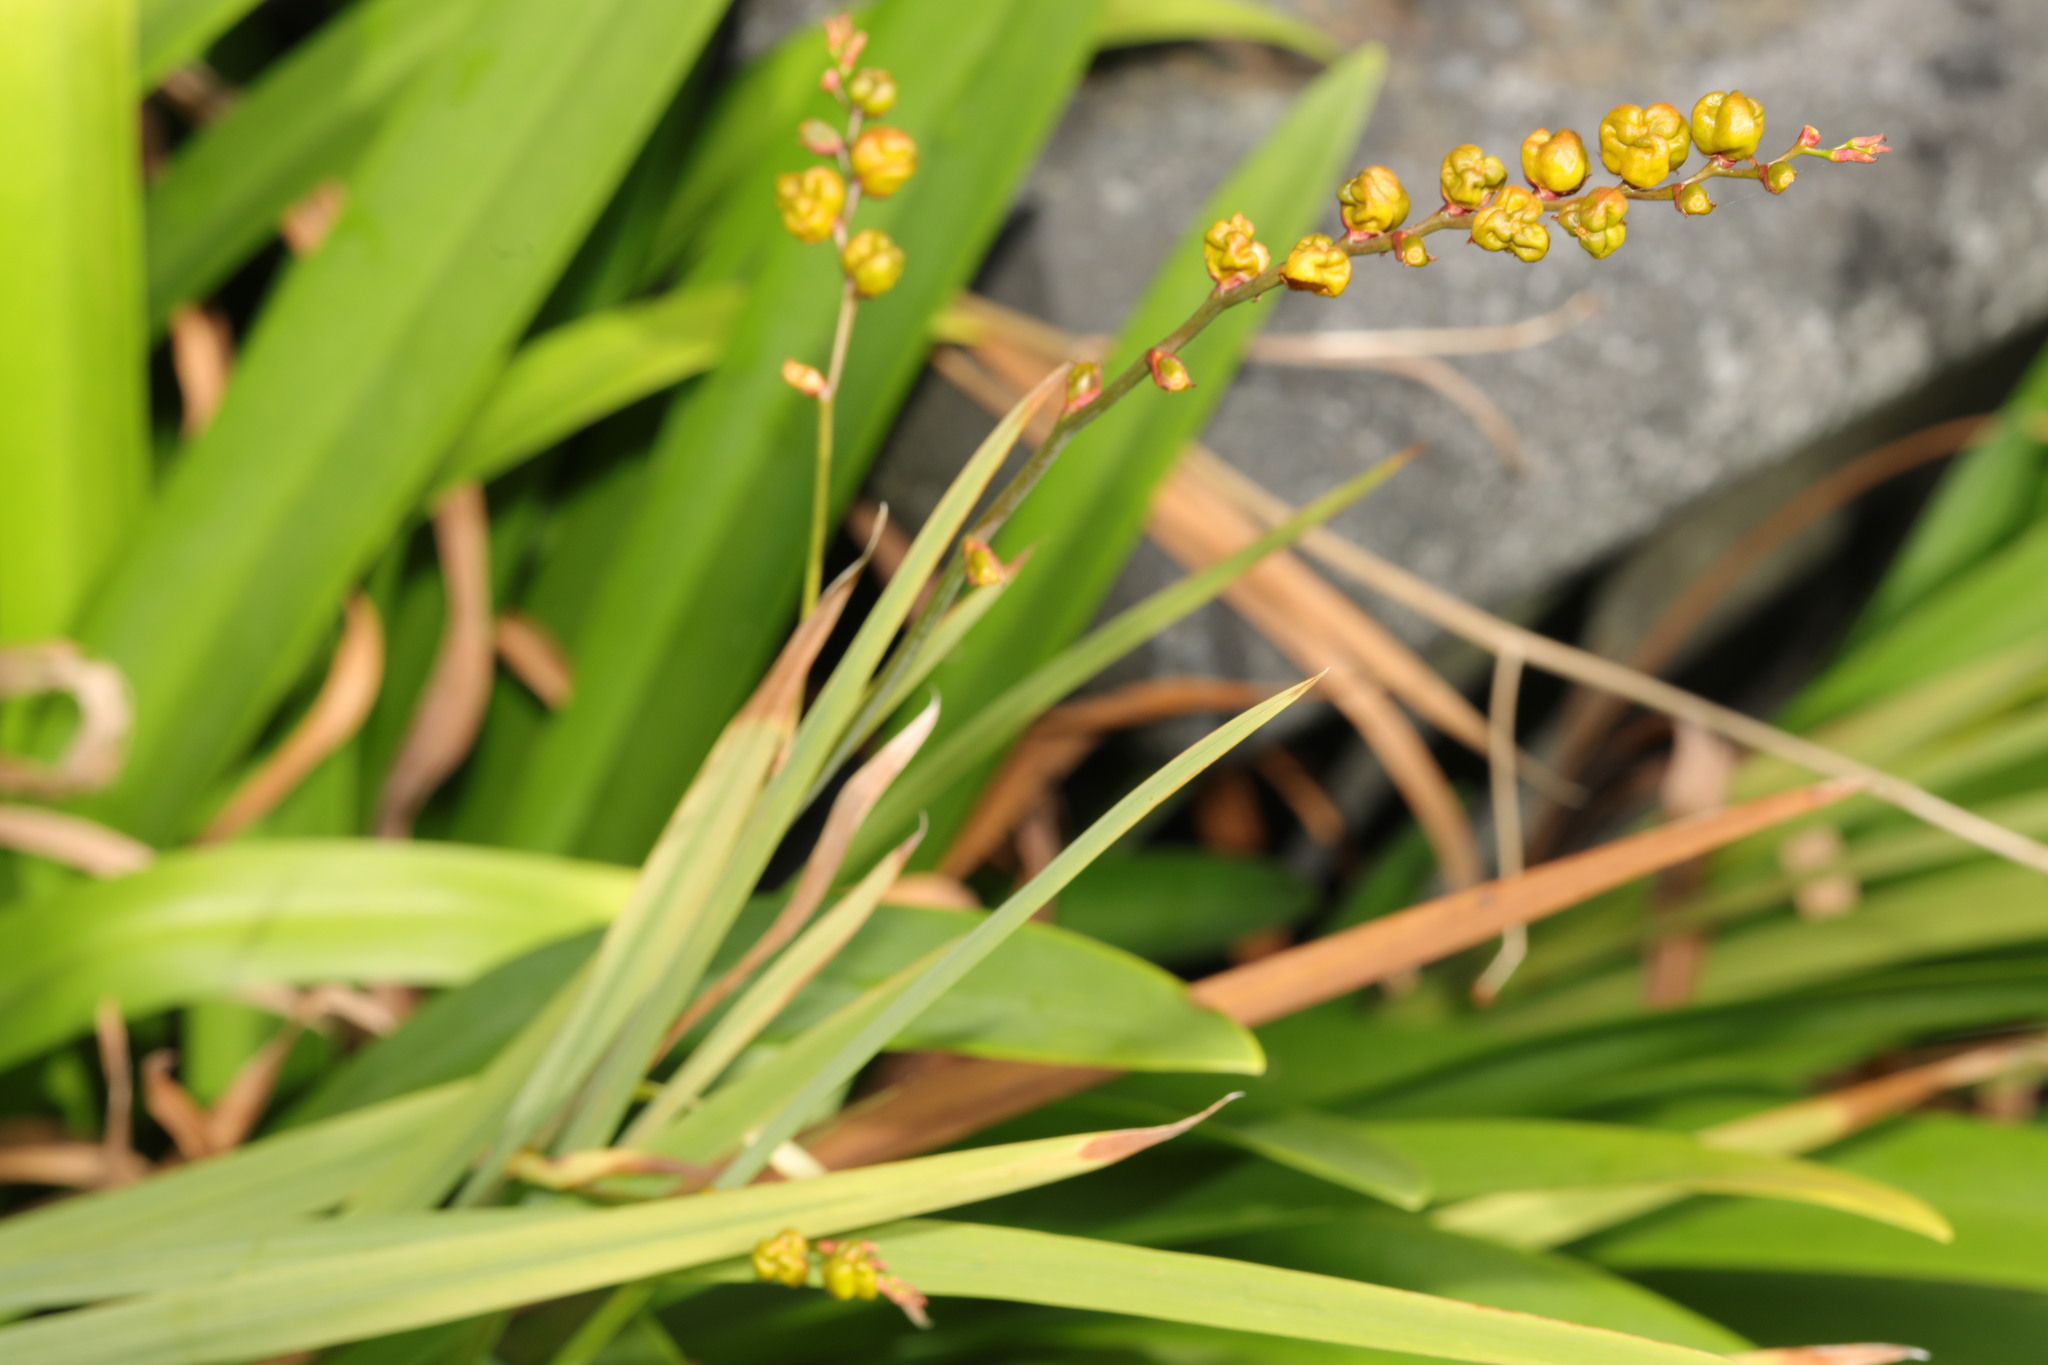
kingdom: Plantae
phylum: Tracheophyta
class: Liliopsida
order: Asparagales
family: Iridaceae
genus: Crocosmia
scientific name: Crocosmia crocosmiiflora
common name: Montbretia
